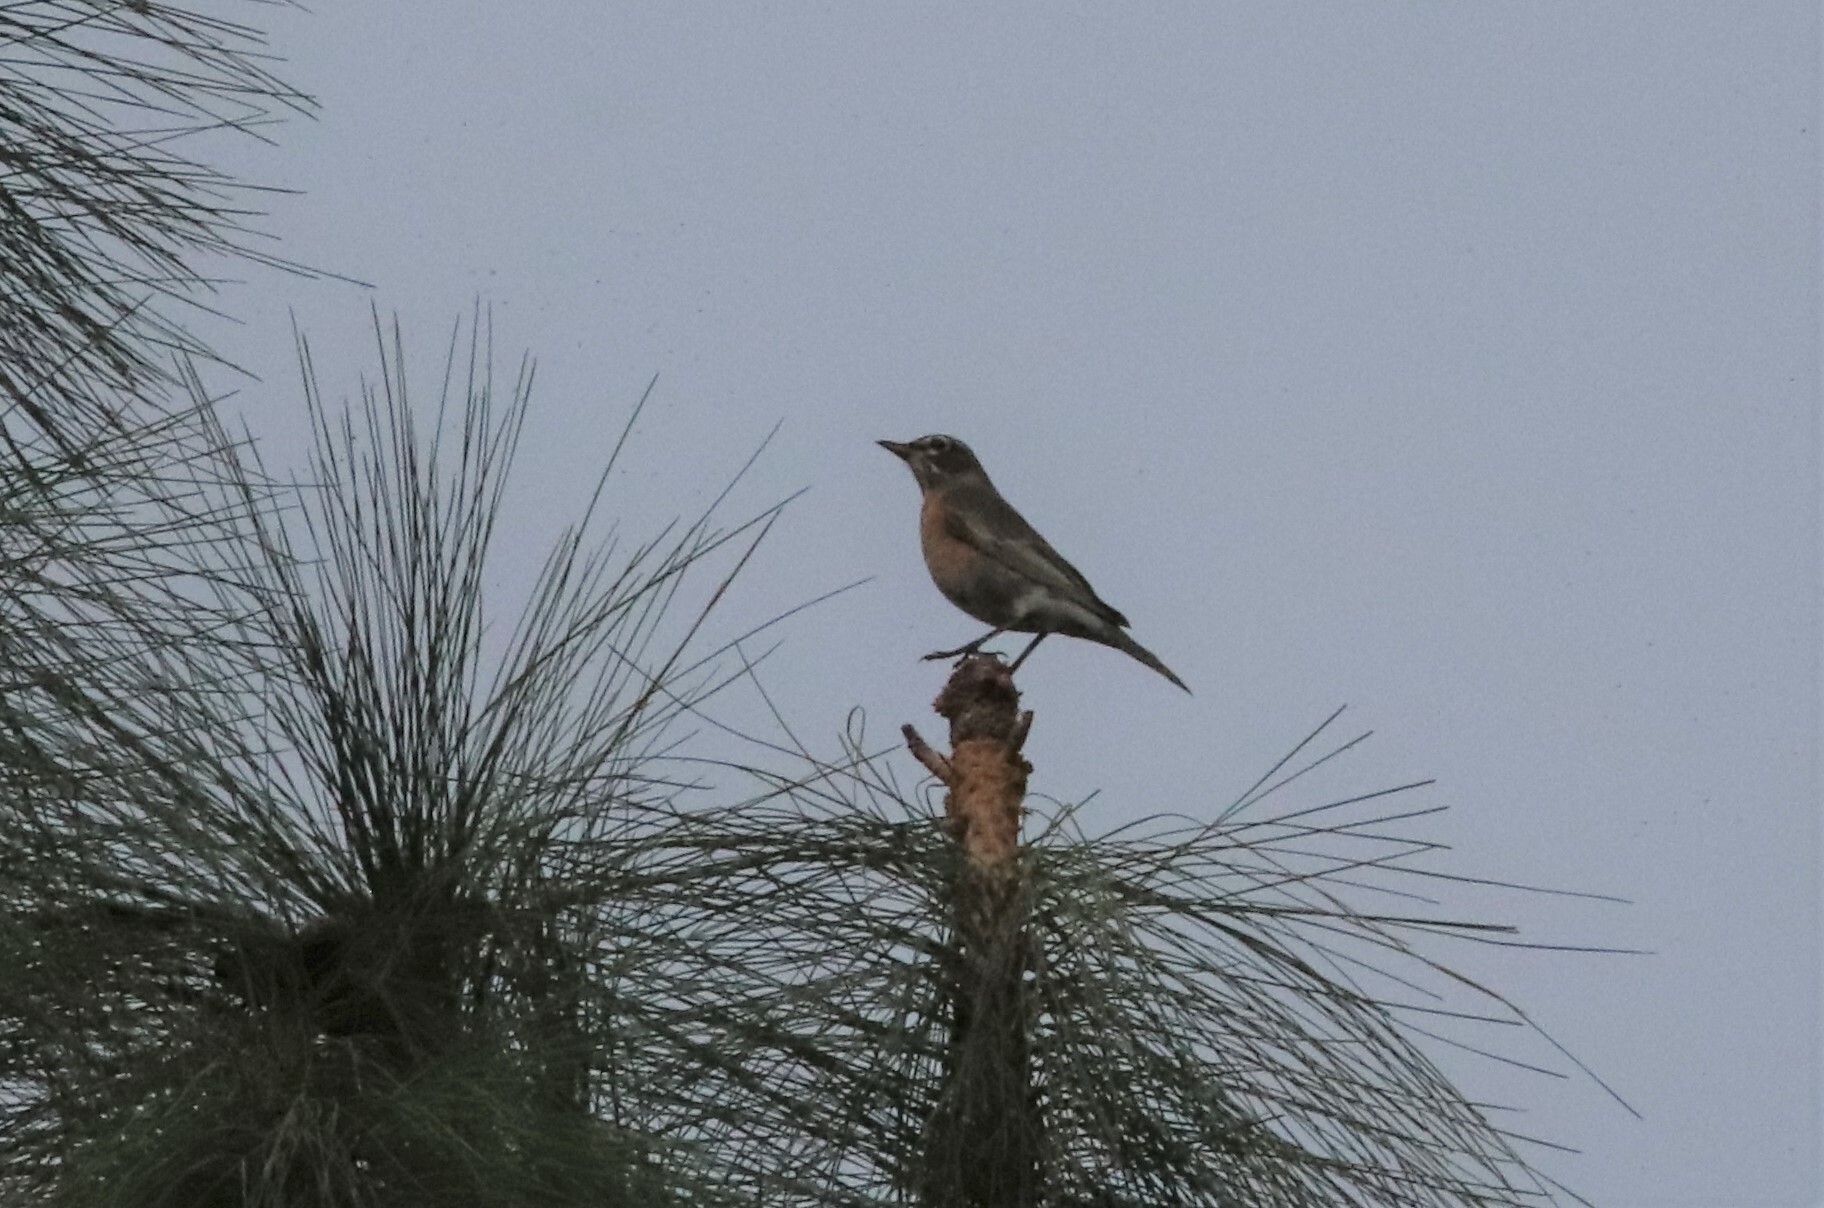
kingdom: Animalia
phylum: Chordata
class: Aves
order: Passeriformes
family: Turdidae
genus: Turdus
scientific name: Turdus migratorius
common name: American robin
